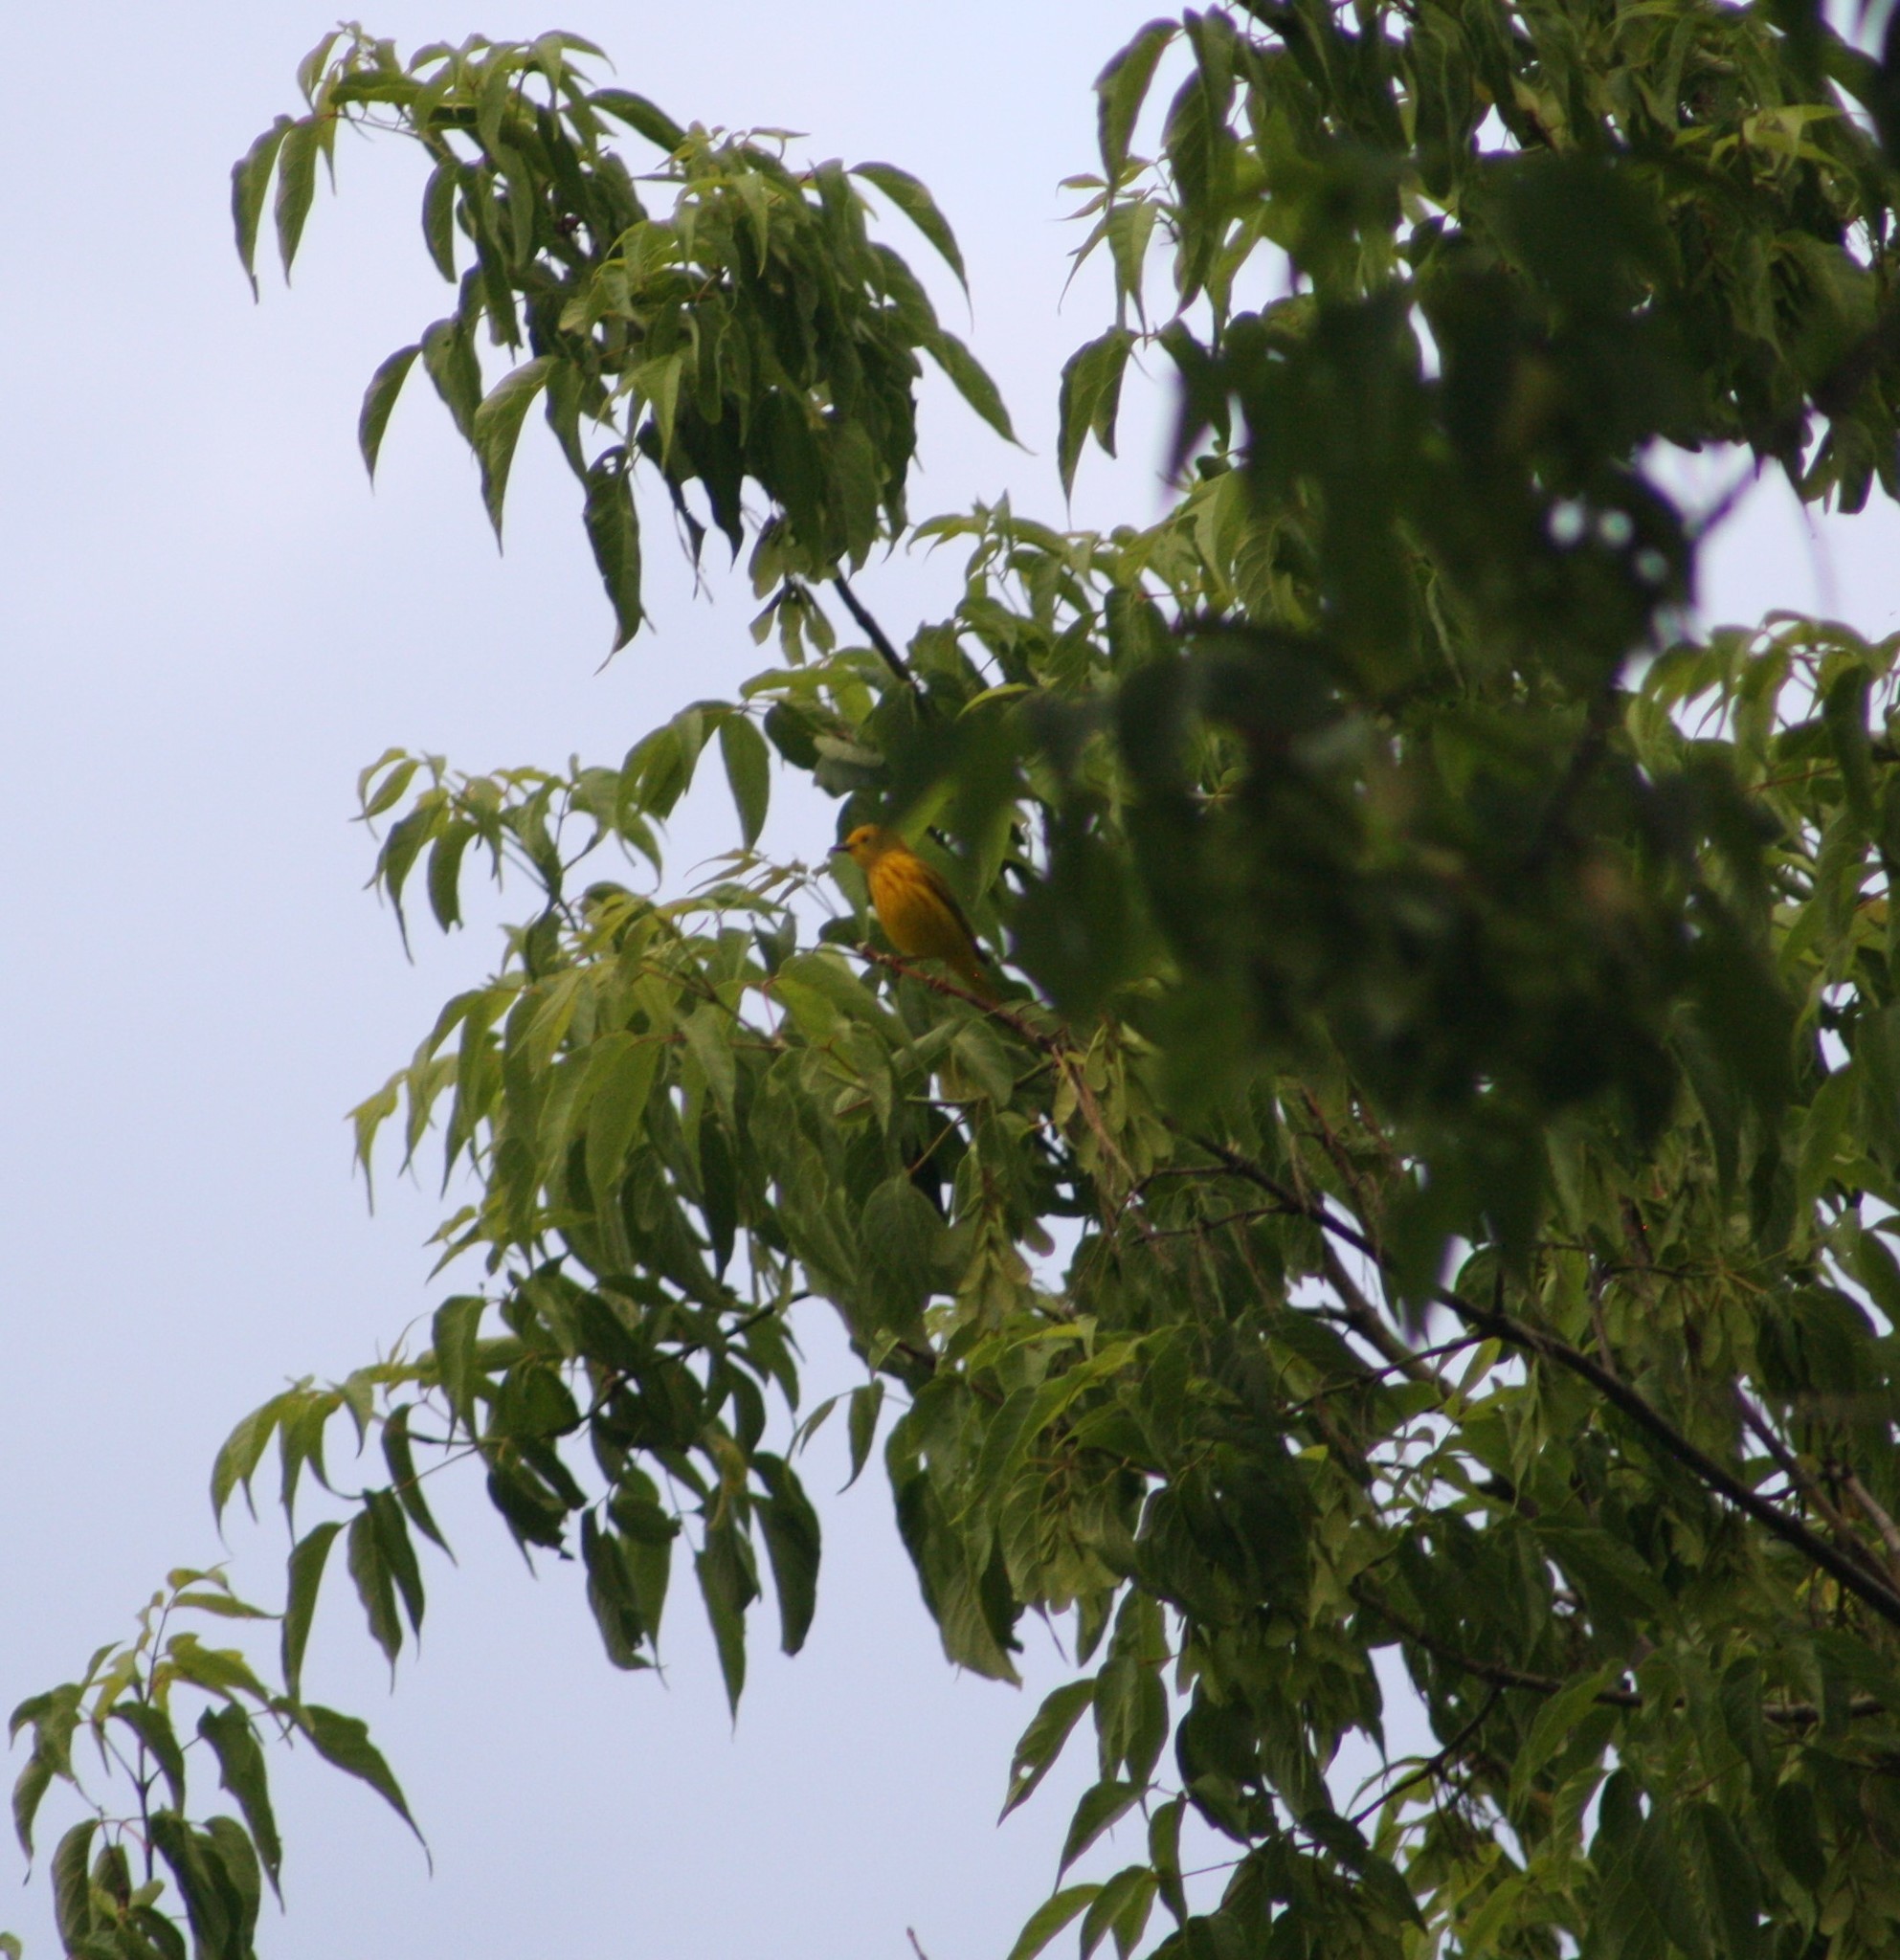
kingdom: Animalia
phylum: Chordata
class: Aves
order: Passeriformes
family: Parulidae
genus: Setophaga
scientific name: Setophaga petechia
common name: Yellow warbler
